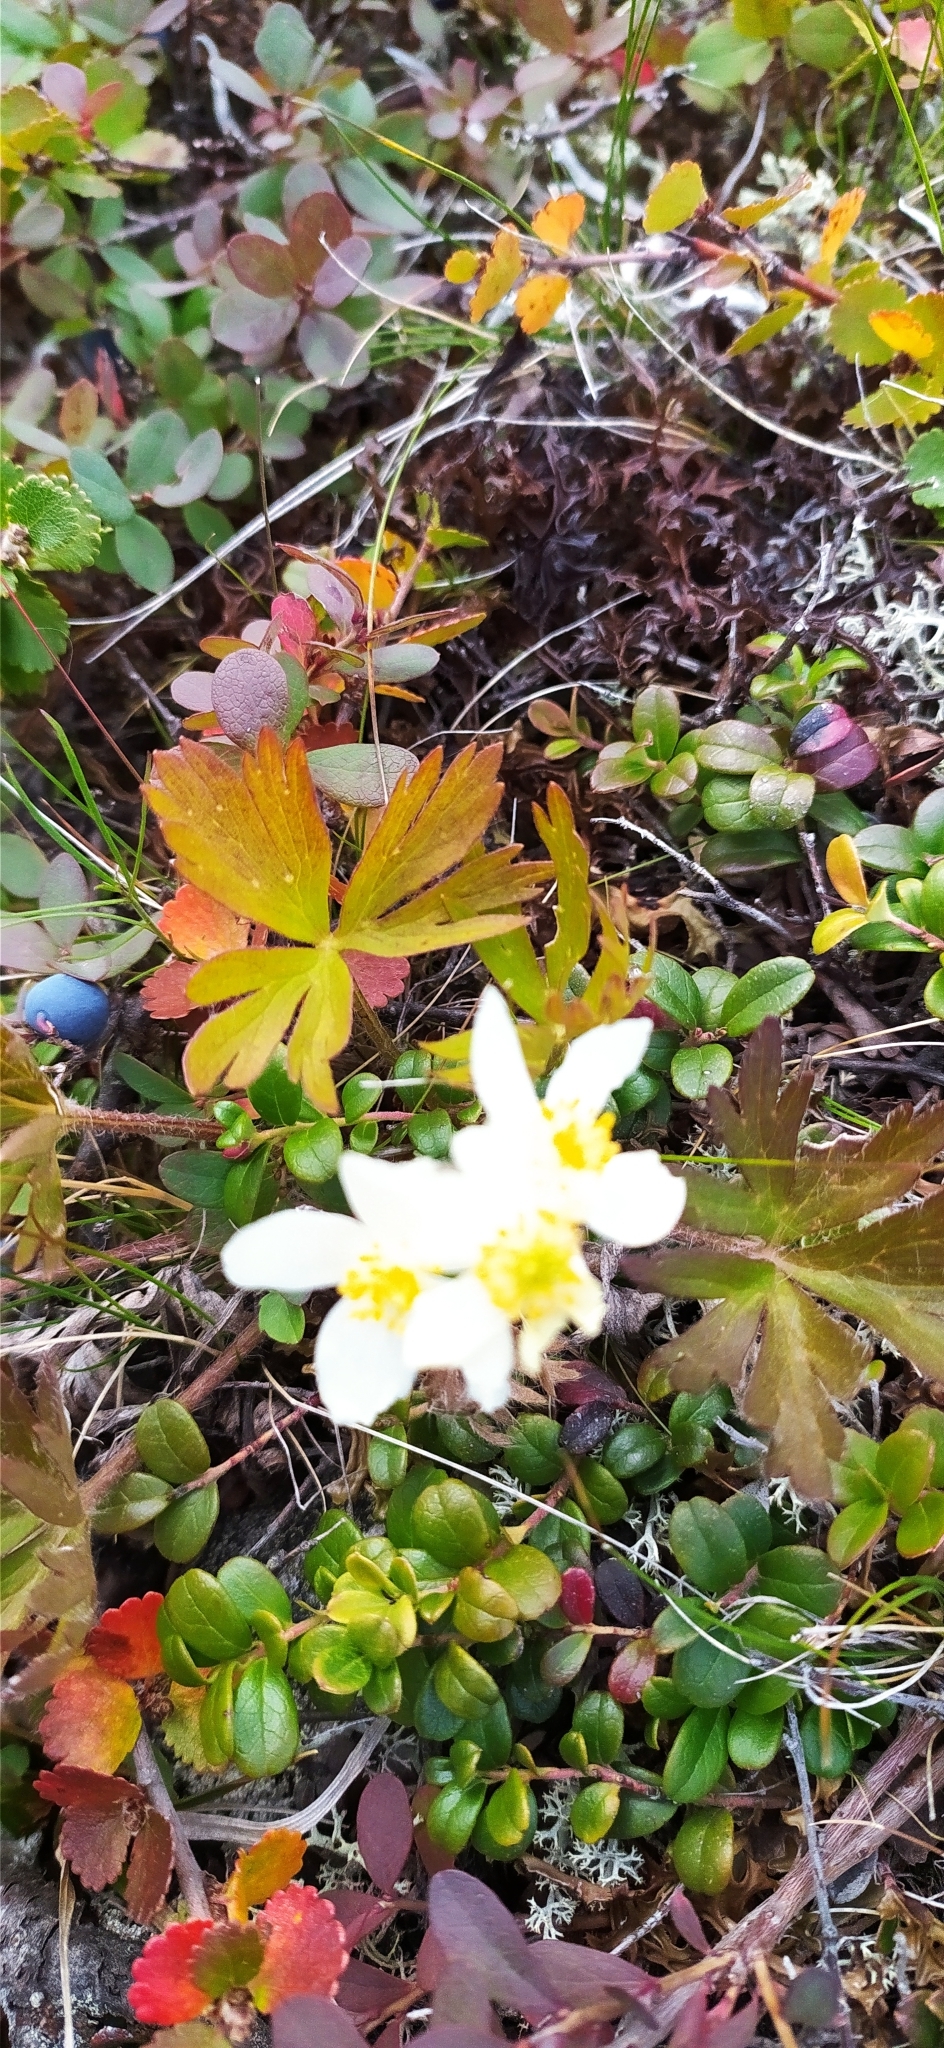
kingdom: Plantae
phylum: Tracheophyta
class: Magnoliopsida
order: Ranunculales
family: Ranunculaceae
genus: Anemonastrum
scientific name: Anemonastrum biarmiense
